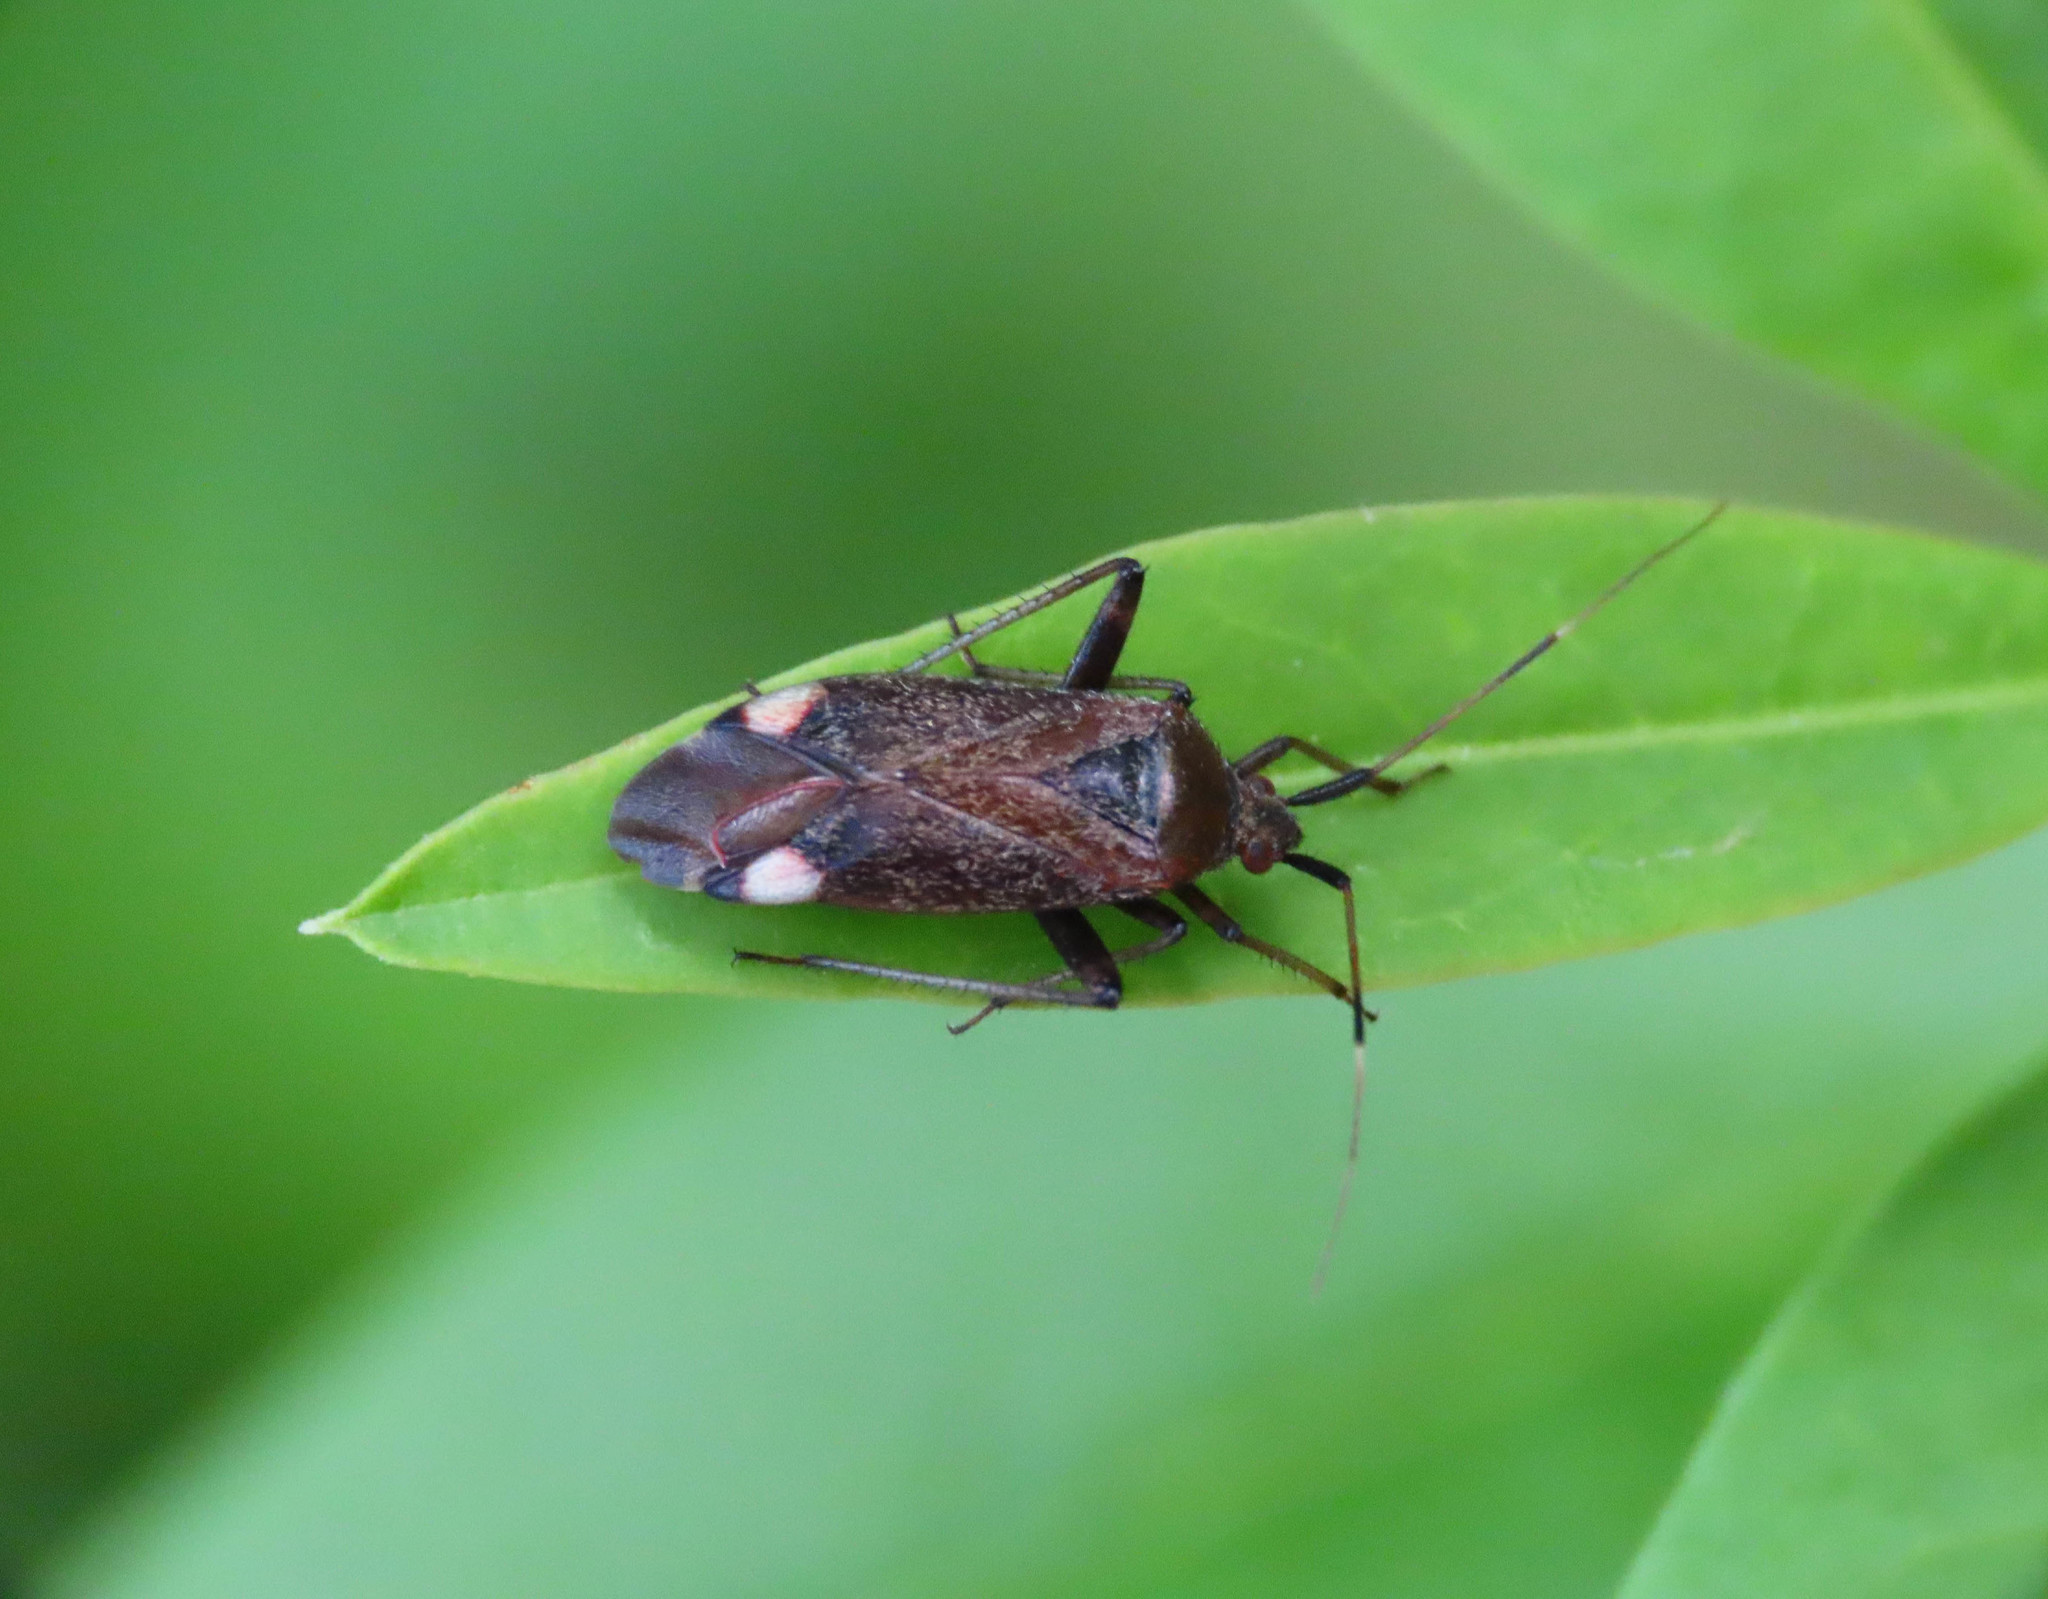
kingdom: Animalia
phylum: Arthropoda
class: Insecta
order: Hemiptera
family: Miridae
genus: Closterotomus
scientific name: Closterotomus annulus
